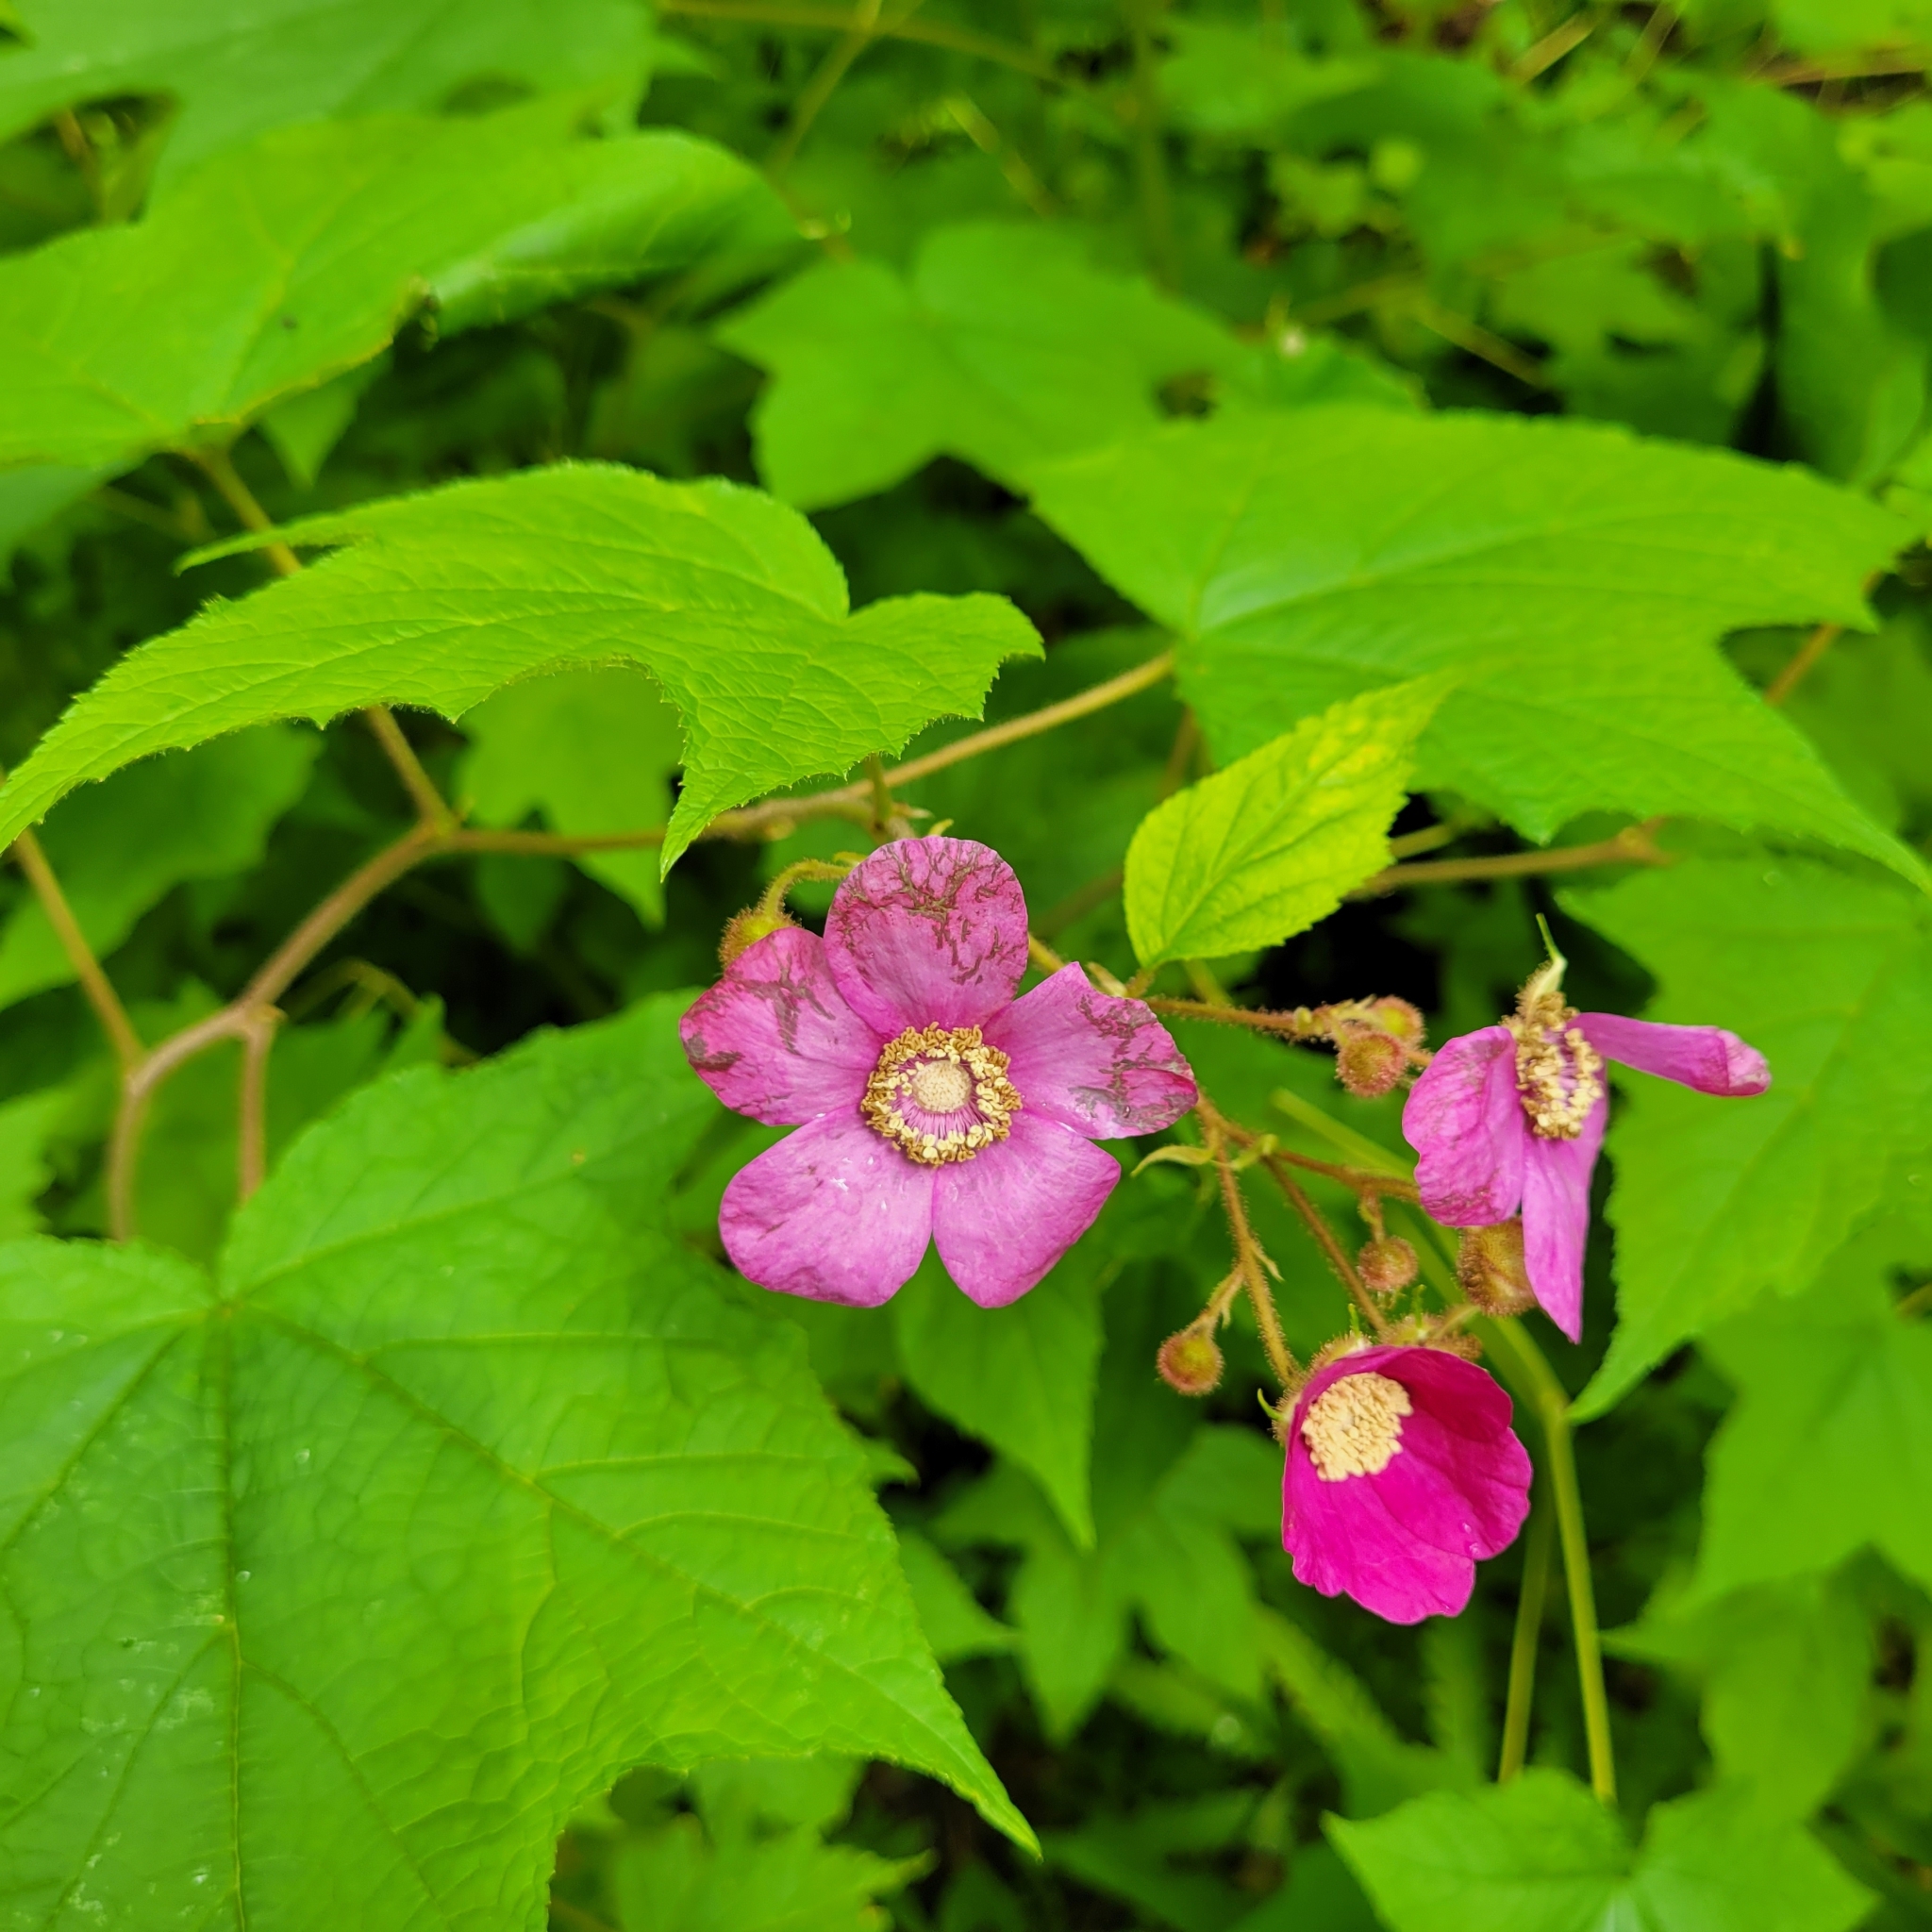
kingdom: Plantae
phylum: Tracheophyta
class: Magnoliopsida
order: Rosales
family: Rosaceae
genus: Rubus
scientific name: Rubus odoratus
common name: Purple-flowered raspberry
